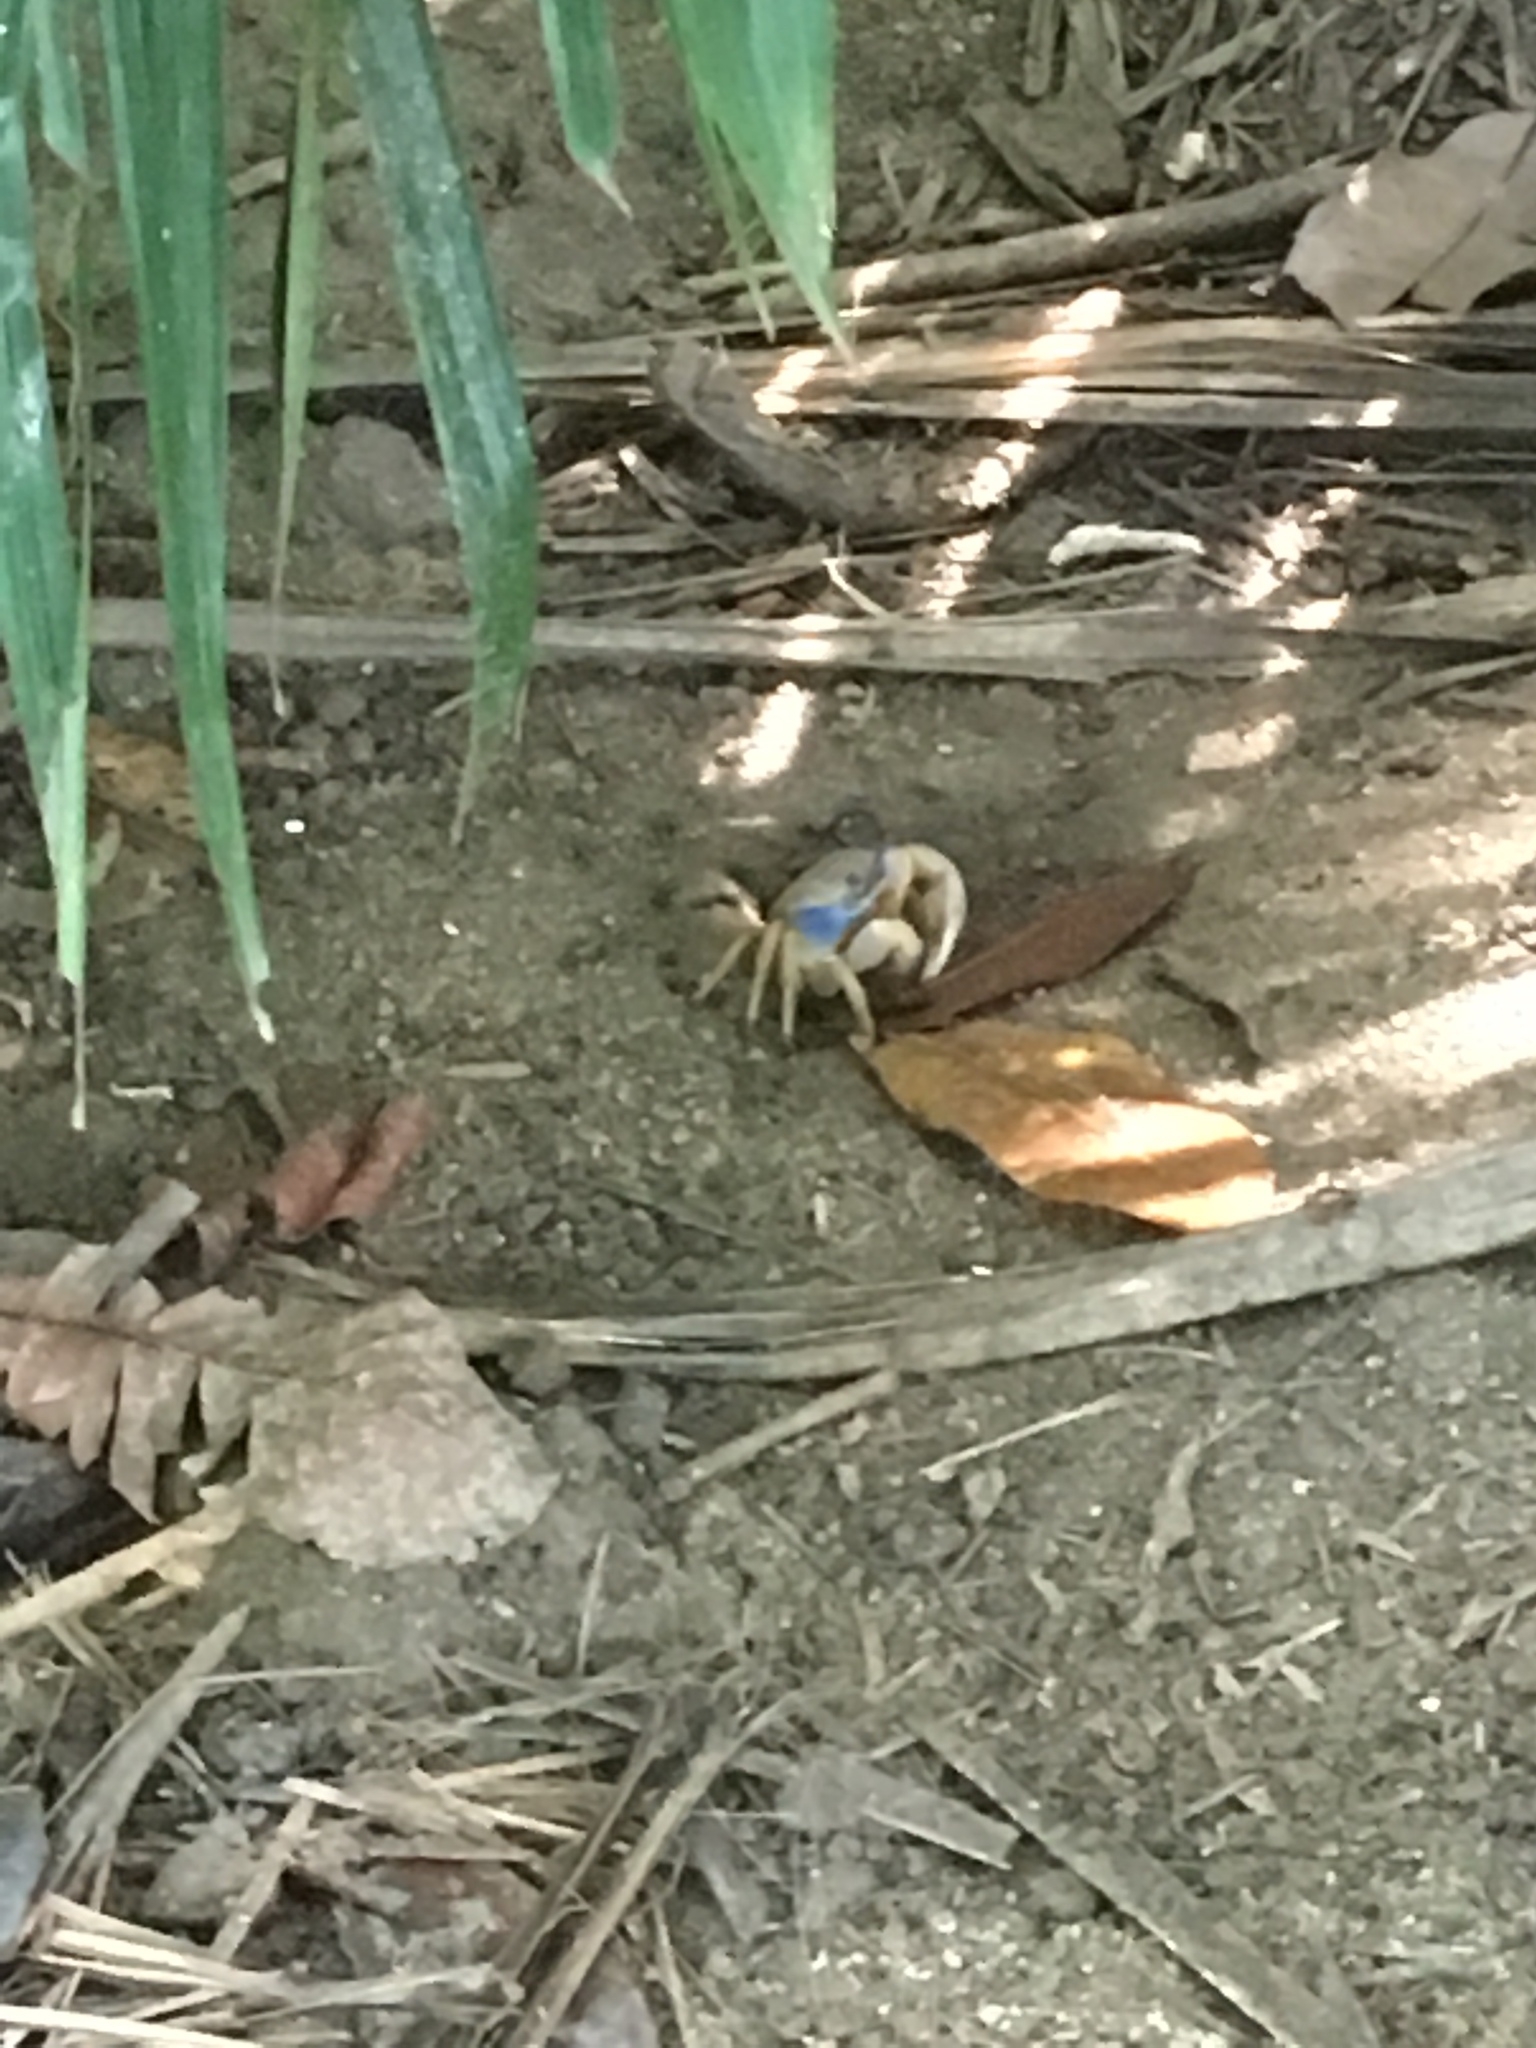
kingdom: Animalia
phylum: Arthropoda
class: Malacostraca
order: Decapoda
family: Gecarcinidae
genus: Cardisoma
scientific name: Cardisoma guanhumi
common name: Great land crab
